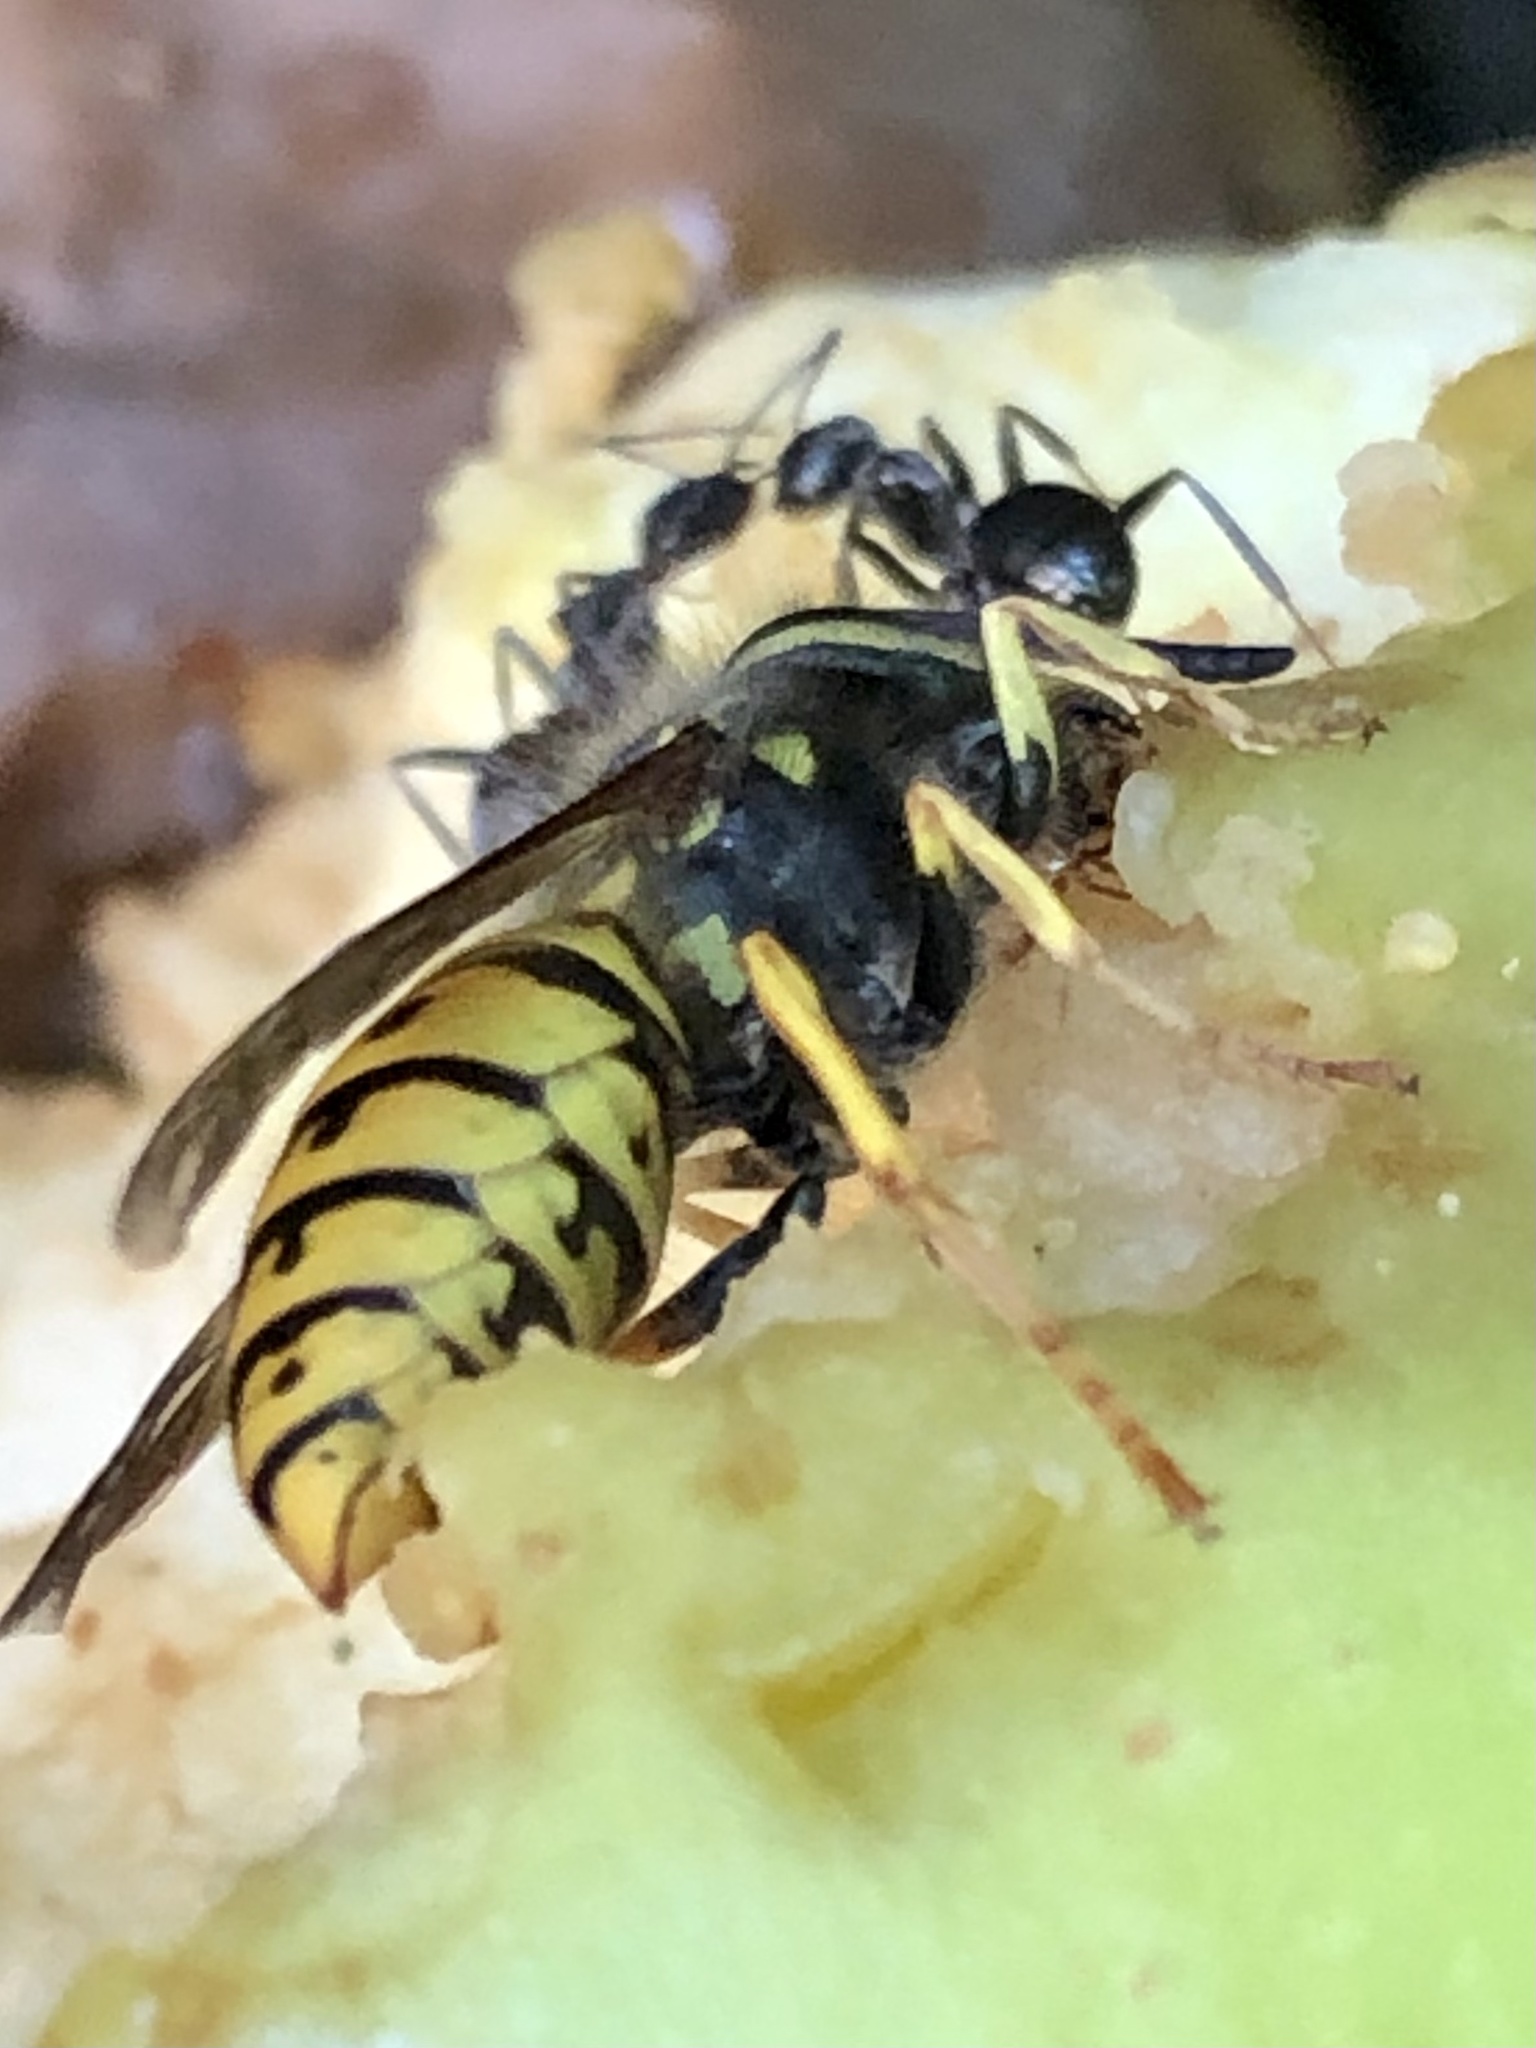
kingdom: Animalia
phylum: Arthropoda
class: Insecta
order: Hymenoptera
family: Vespidae
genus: Vespula
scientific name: Vespula germanica
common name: German wasp
